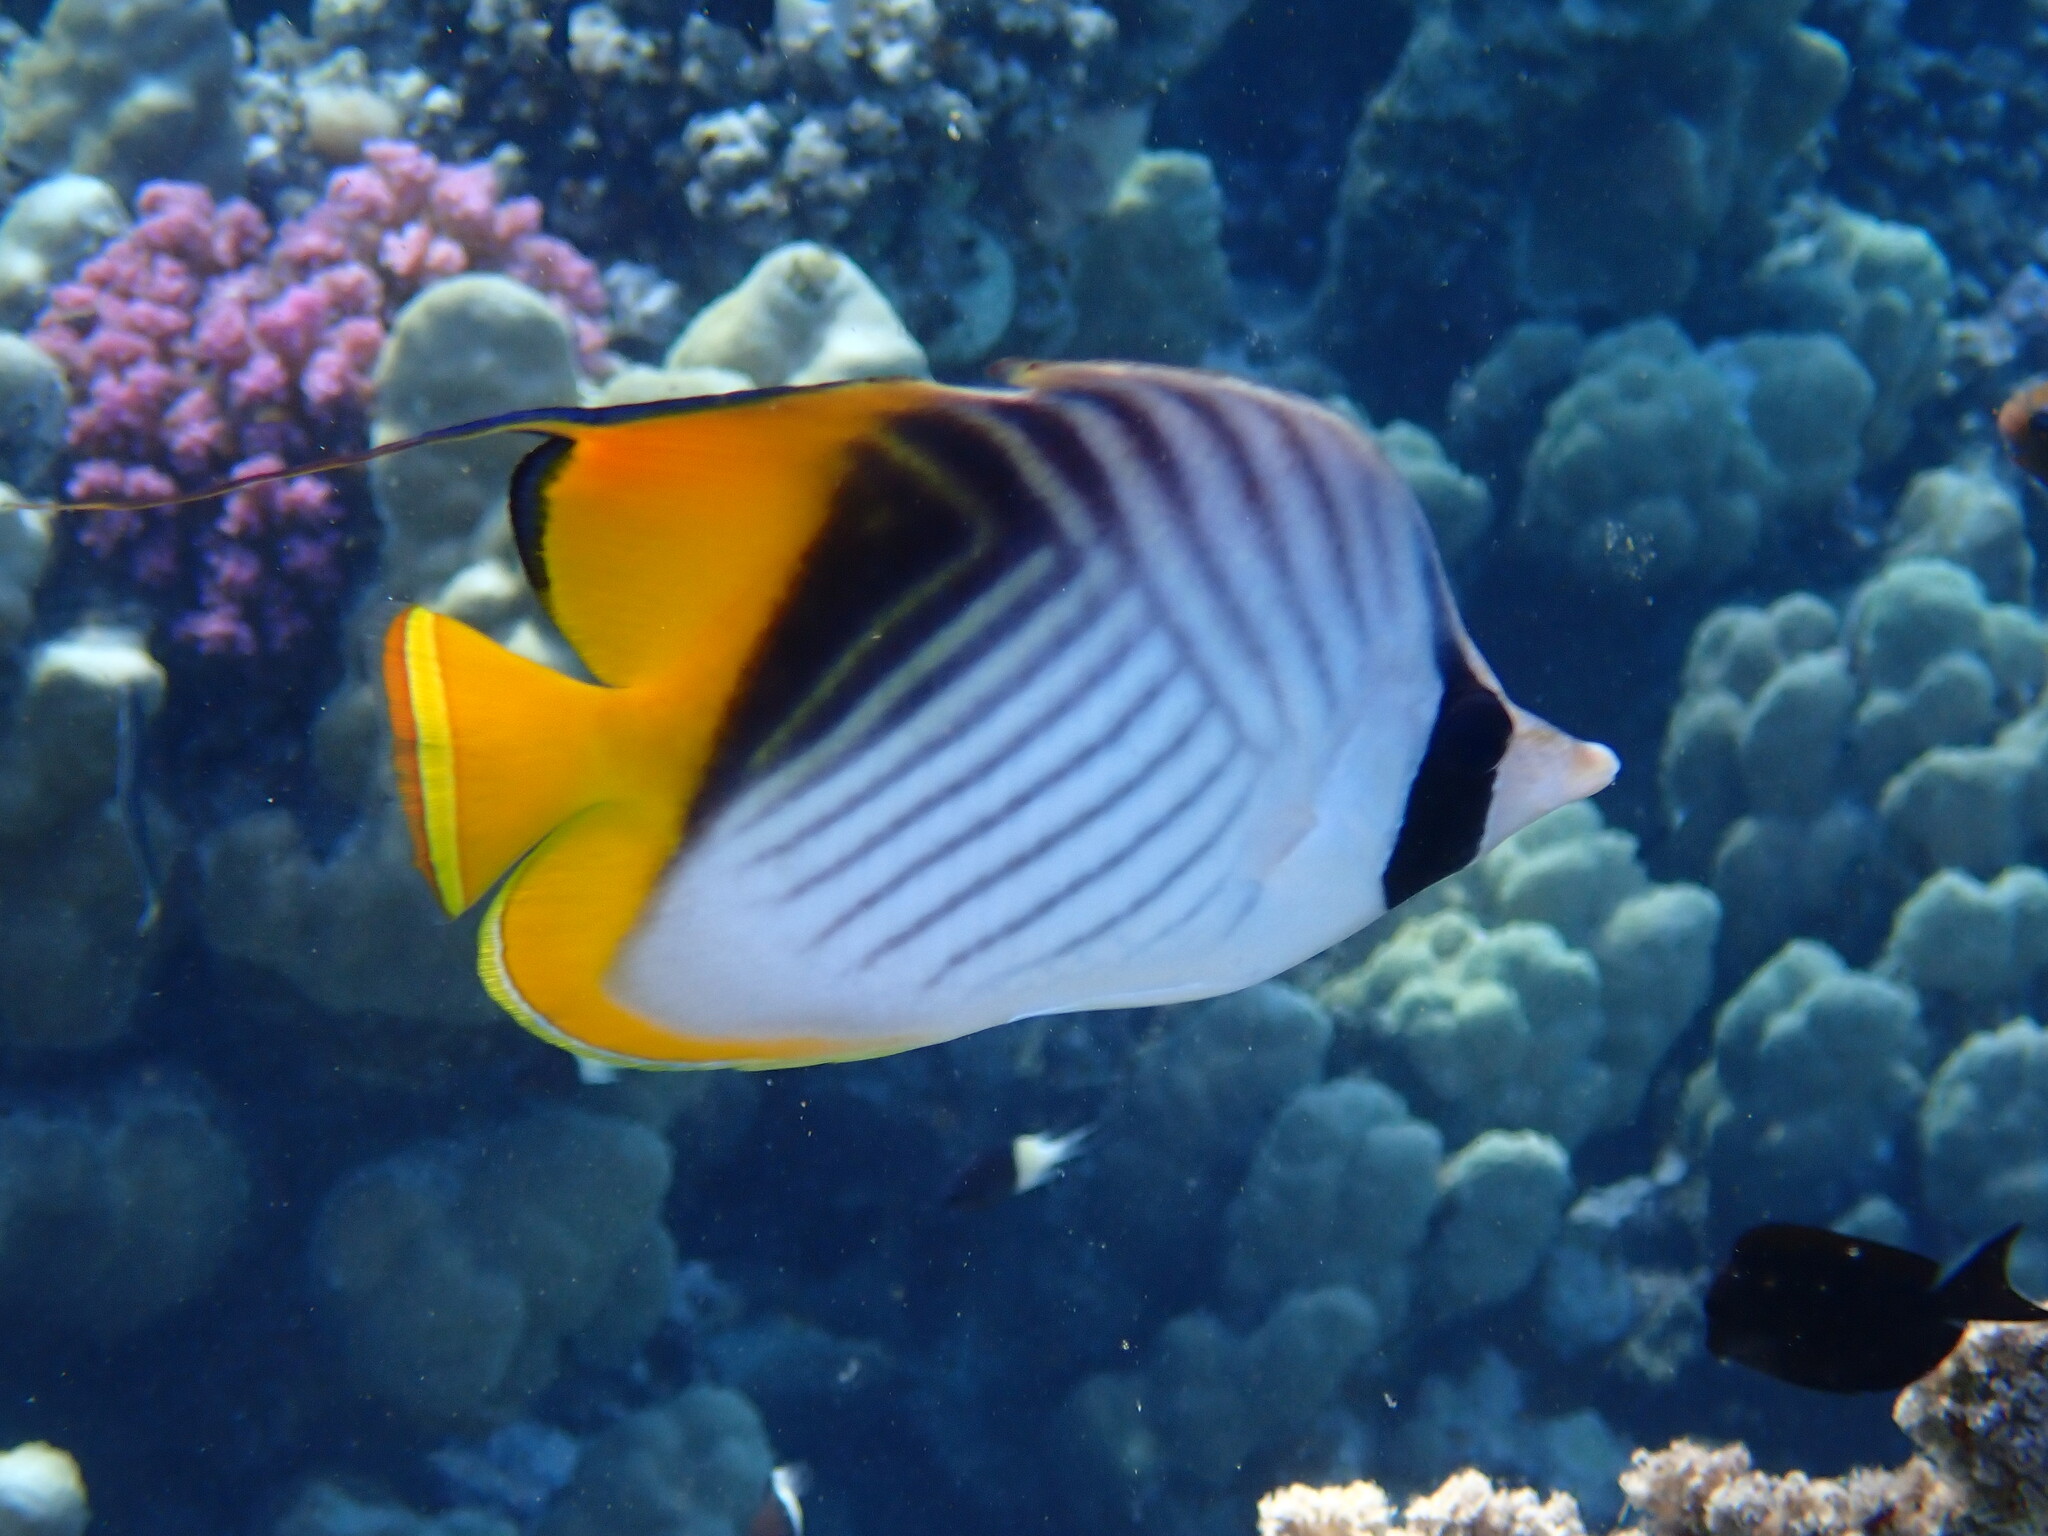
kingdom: Animalia
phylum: Chordata
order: Perciformes
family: Chaetodontidae
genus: Chaetodon
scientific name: Chaetodon auriga
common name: Threadfin butterflyfish
